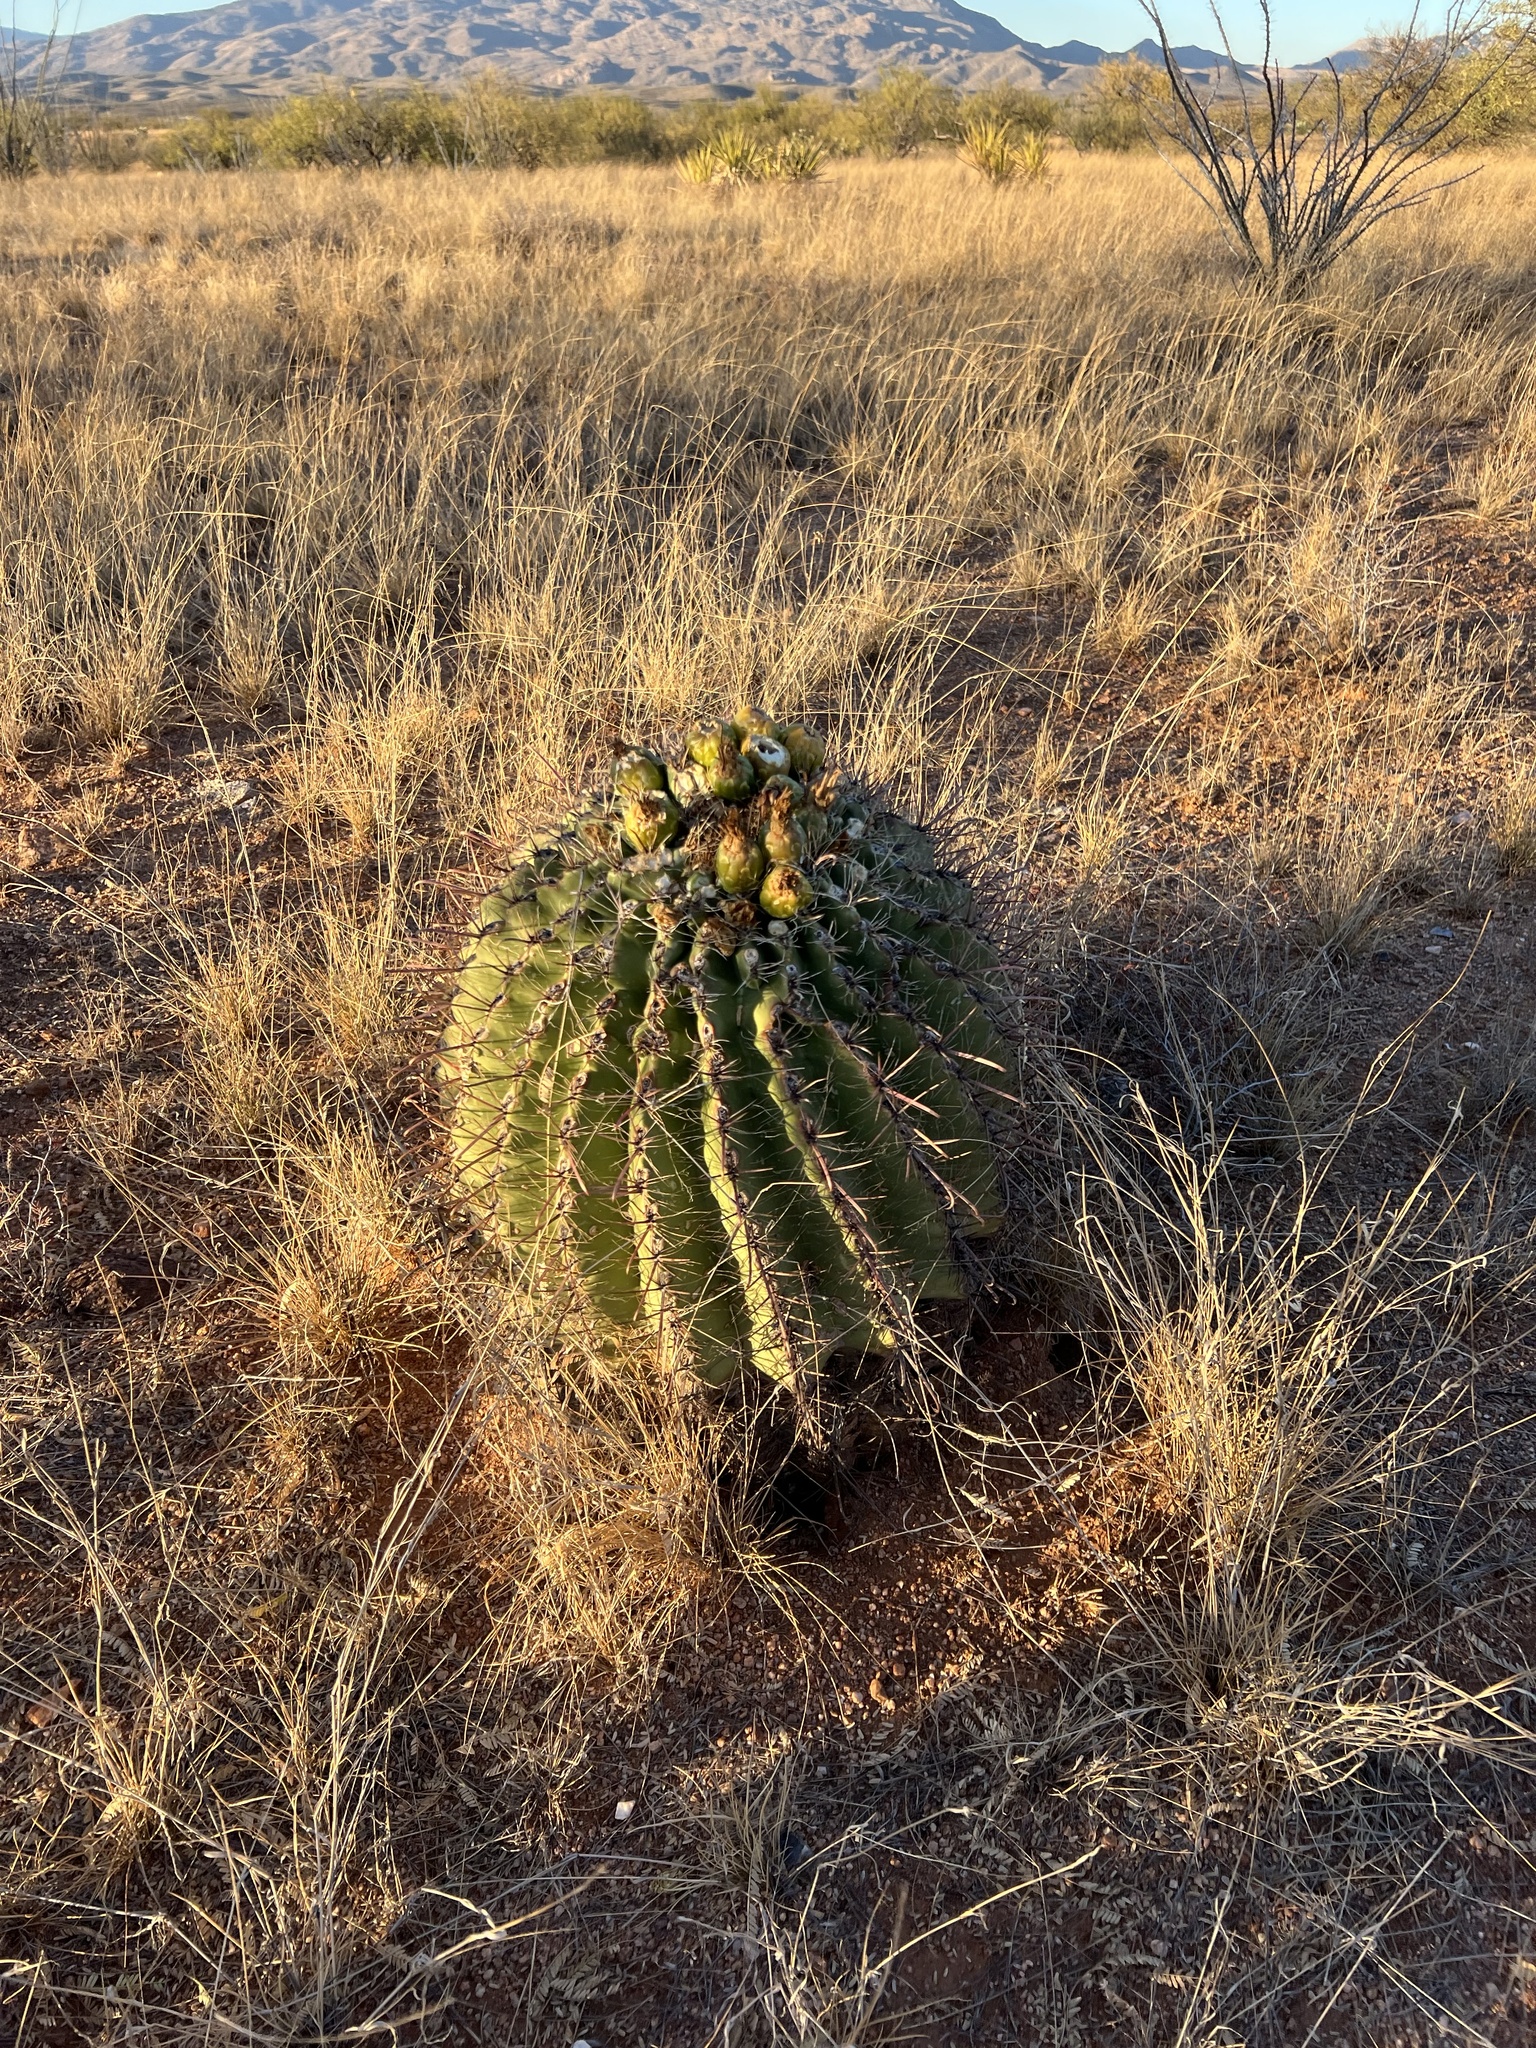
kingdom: Plantae
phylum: Tracheophyta
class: Magnoliopsida
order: Caryophyllales
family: Cactaceae
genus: Ferocactus
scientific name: Ferocactus wislizeni
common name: Candy barrel cactus
